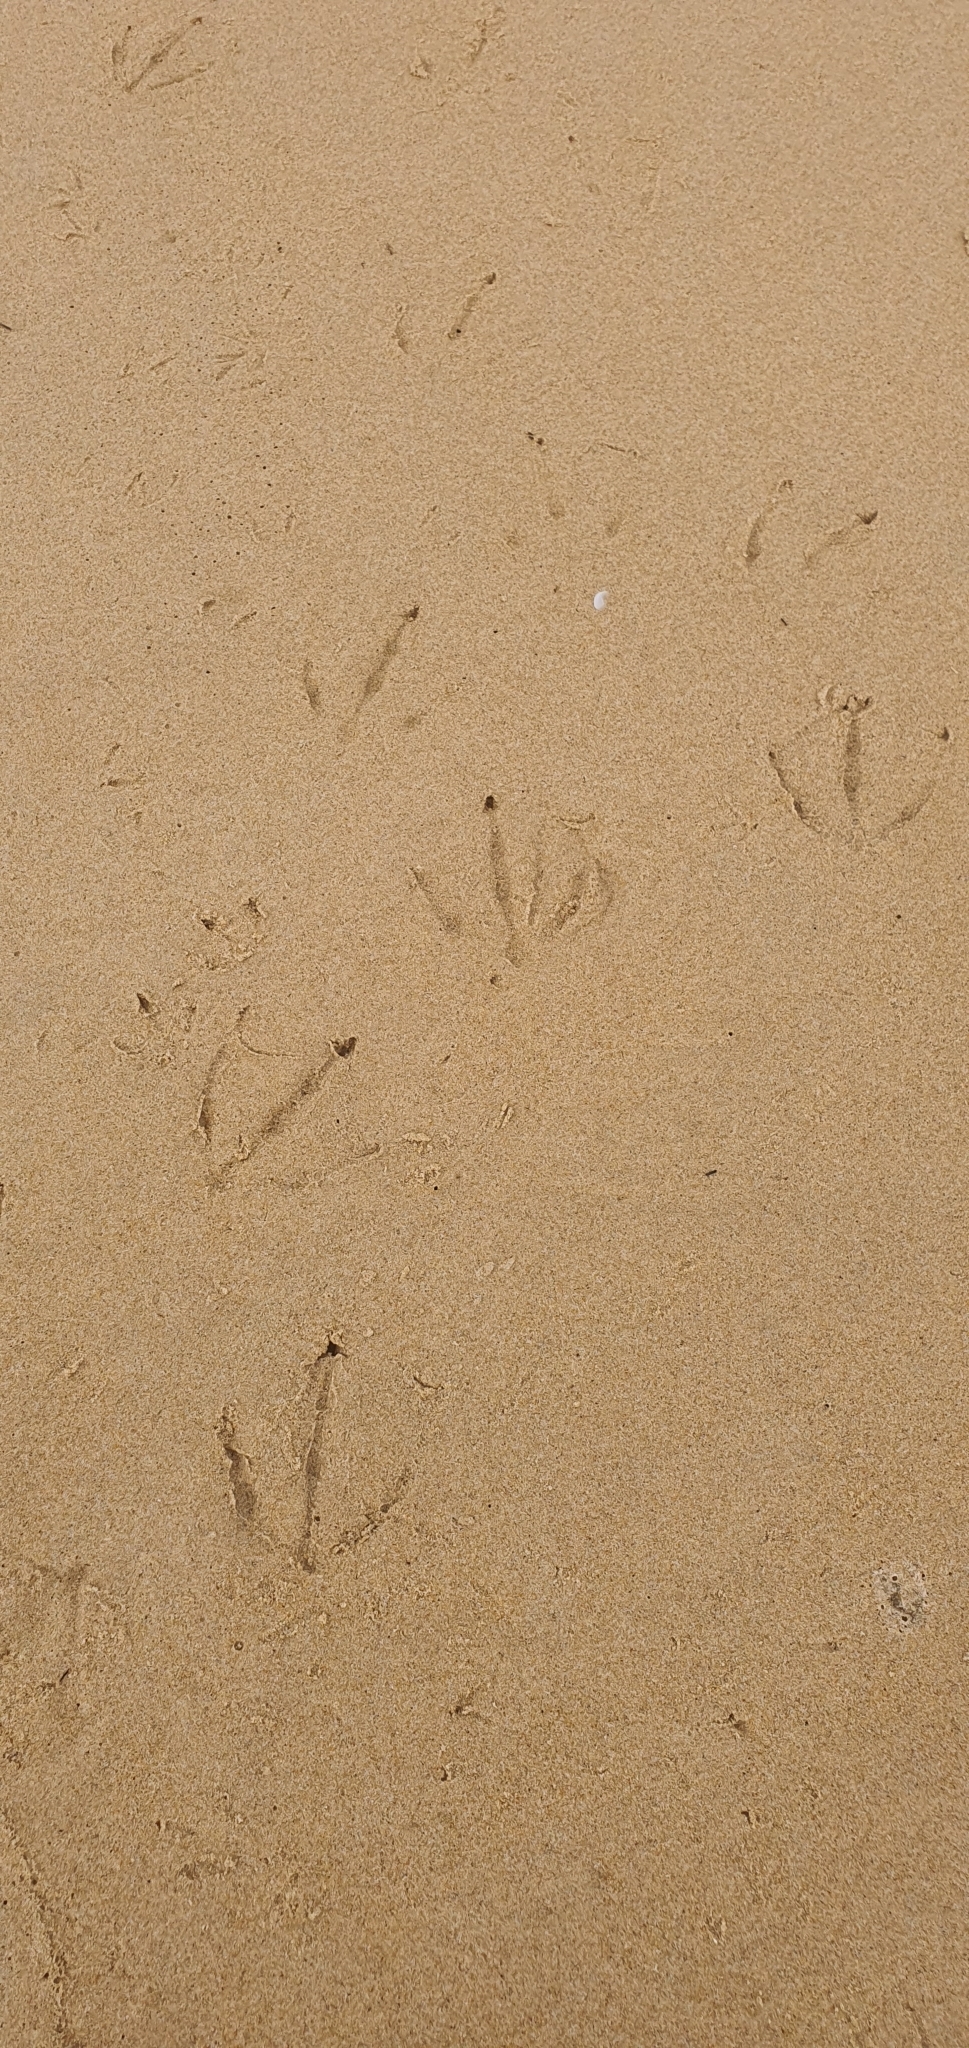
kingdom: Animalia
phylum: Chordata
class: Aves
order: Anseriformes
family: Anatidae
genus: Cygnus
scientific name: Cygnus atratus
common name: Black swan
